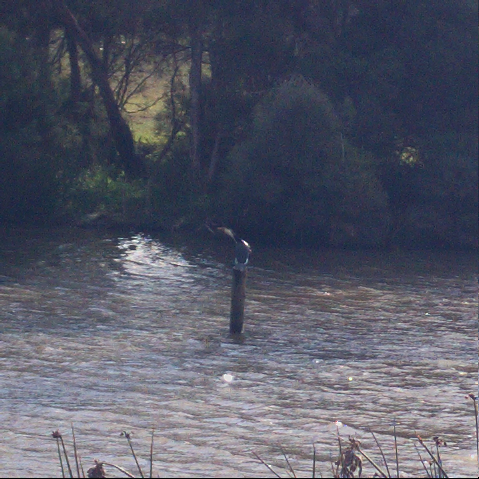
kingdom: Animalia
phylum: Chordata
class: Aves
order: Suliformes
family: Phalacrocoracidae
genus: Microcarbo
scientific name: Microcarbo melanoleucos
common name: Little pied cormorant
